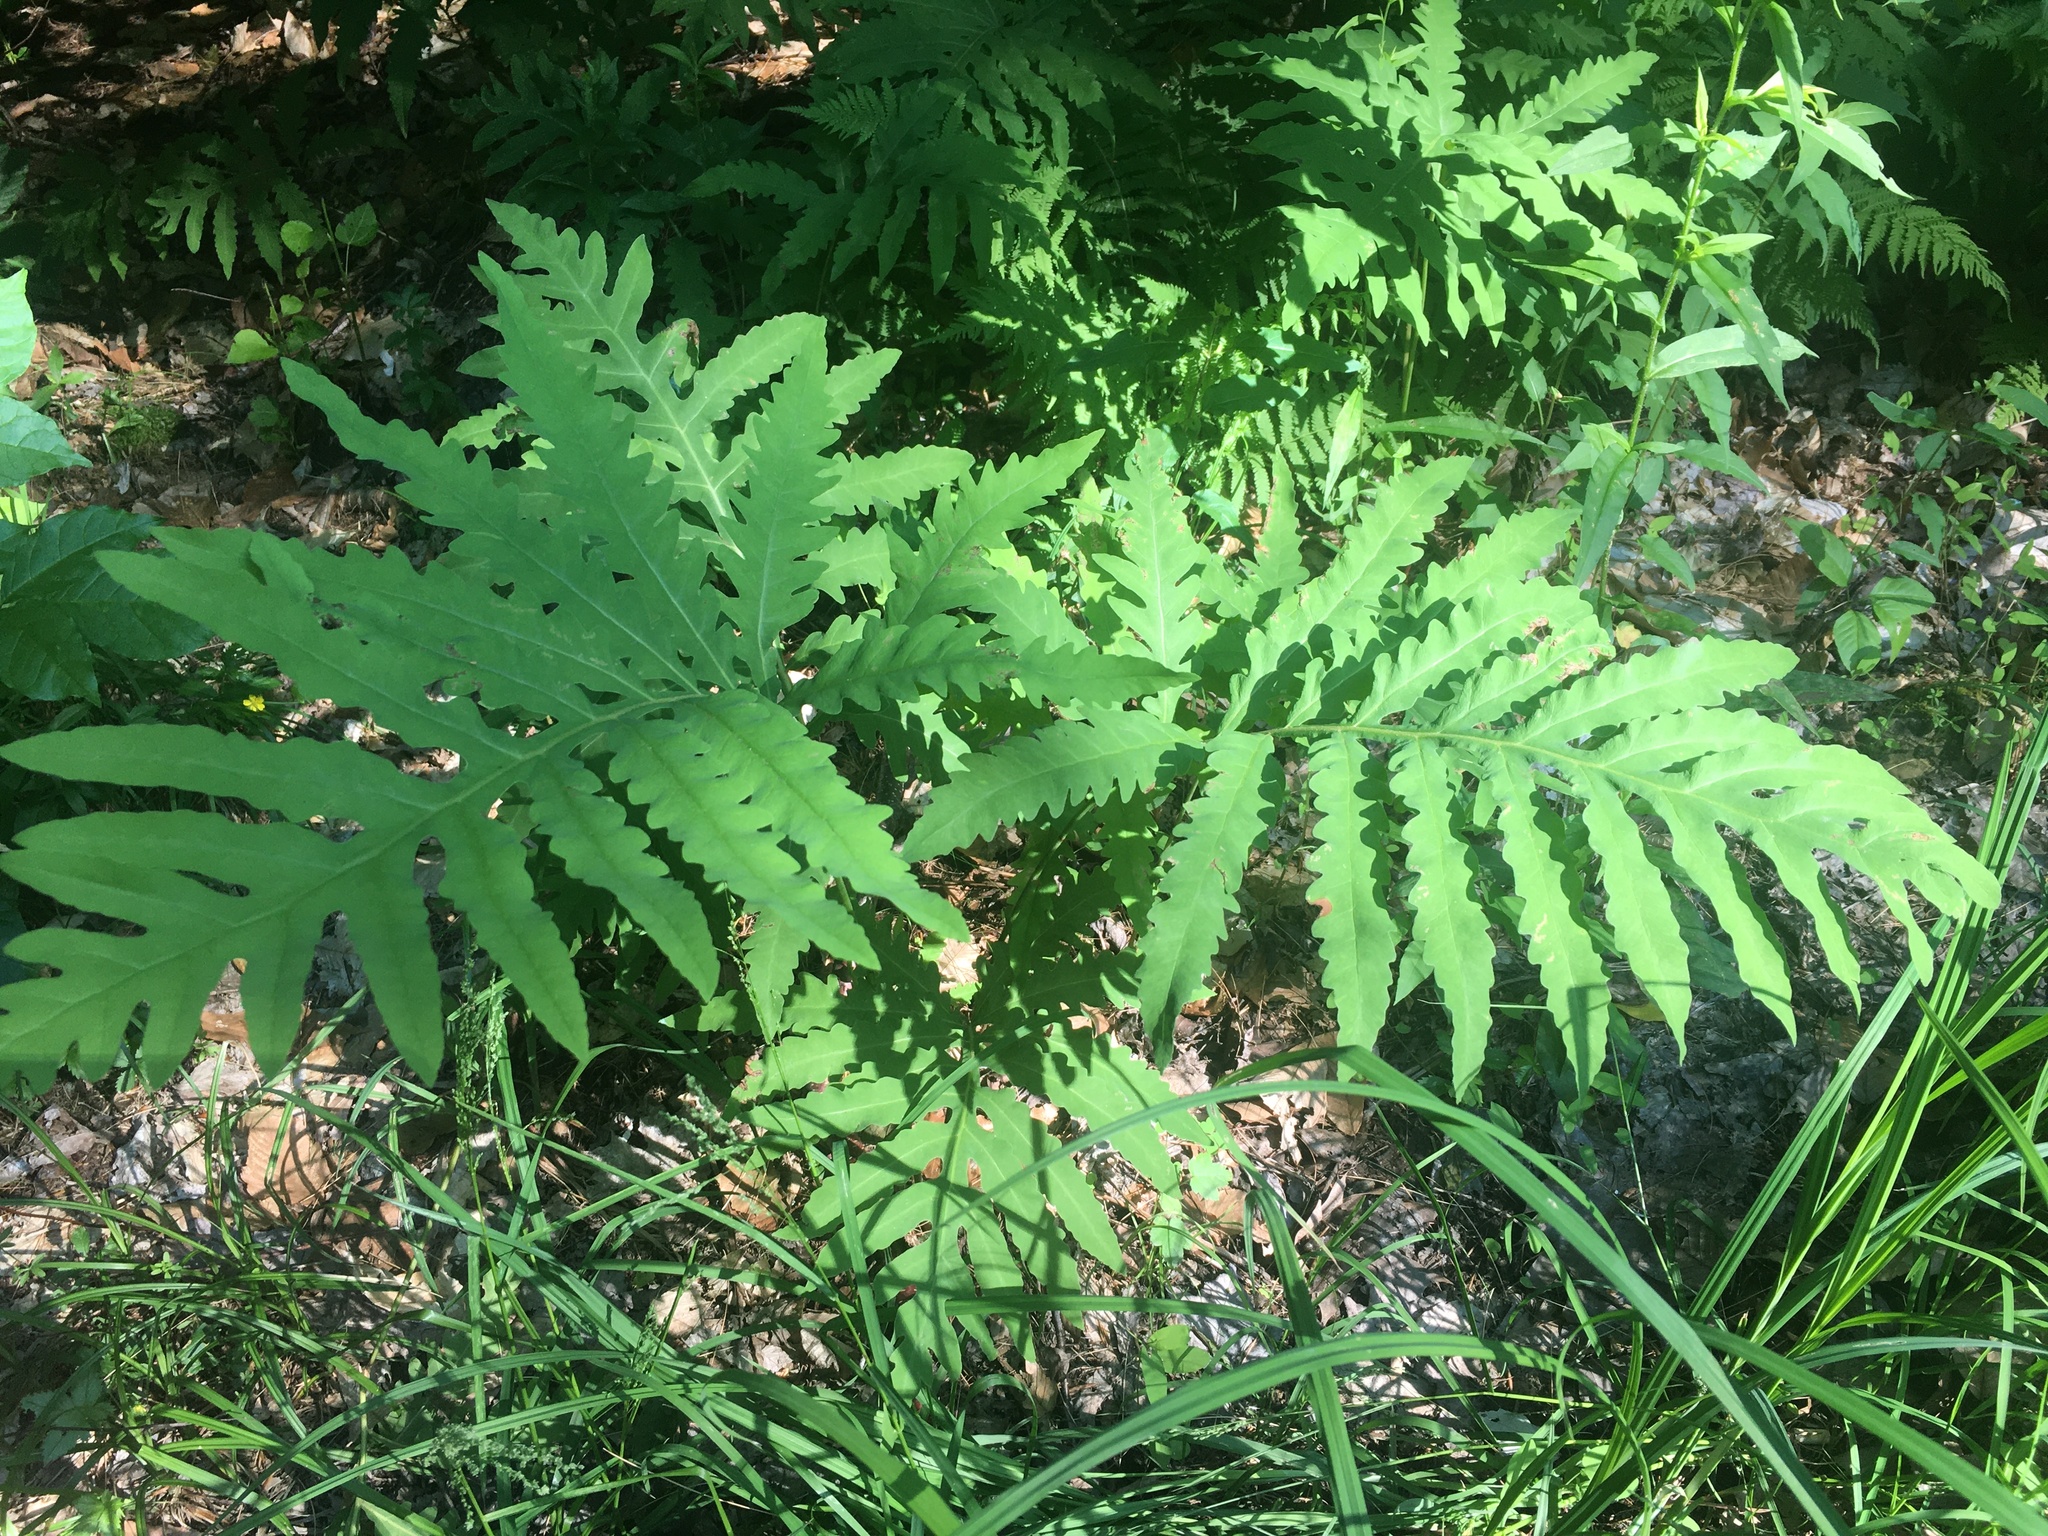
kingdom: Plantae
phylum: Tracheophyta
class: Polypodiopsida
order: Polypodiales
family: Onocleaceae
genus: Onoclea
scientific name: Onoclea sensibilis
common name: Sensitive fern
